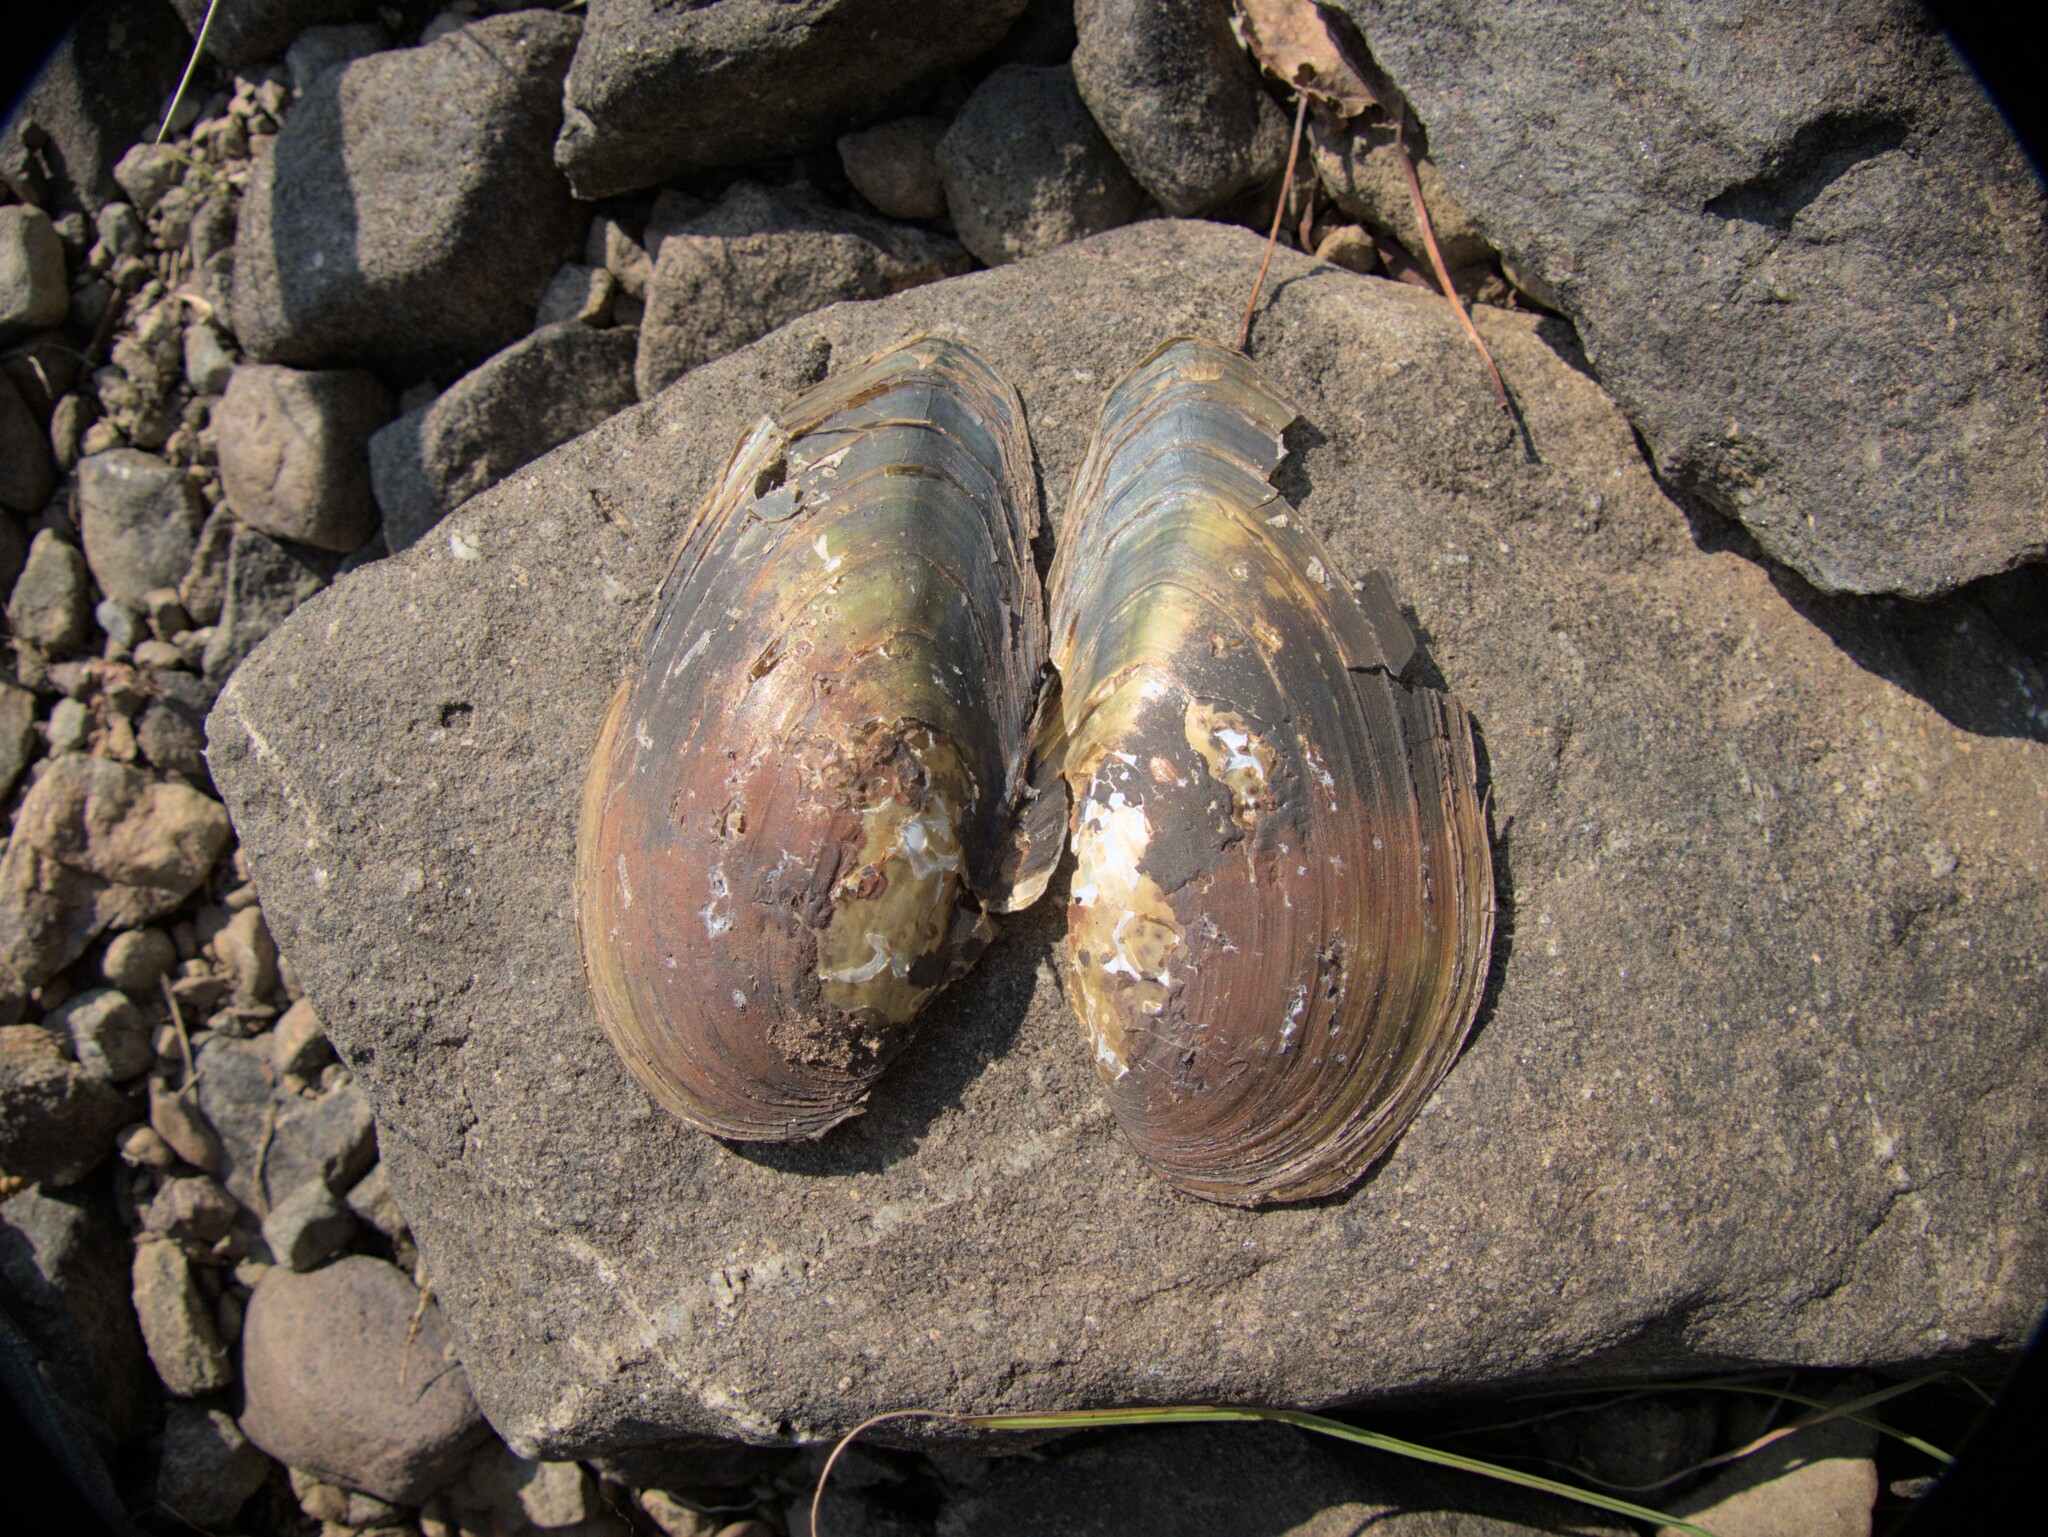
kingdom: Animalia
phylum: Mollusca
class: Bivalvia
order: Unionida
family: Unionidae
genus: Pyganodon
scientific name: Pyganodon cataracta
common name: Eastern floater
